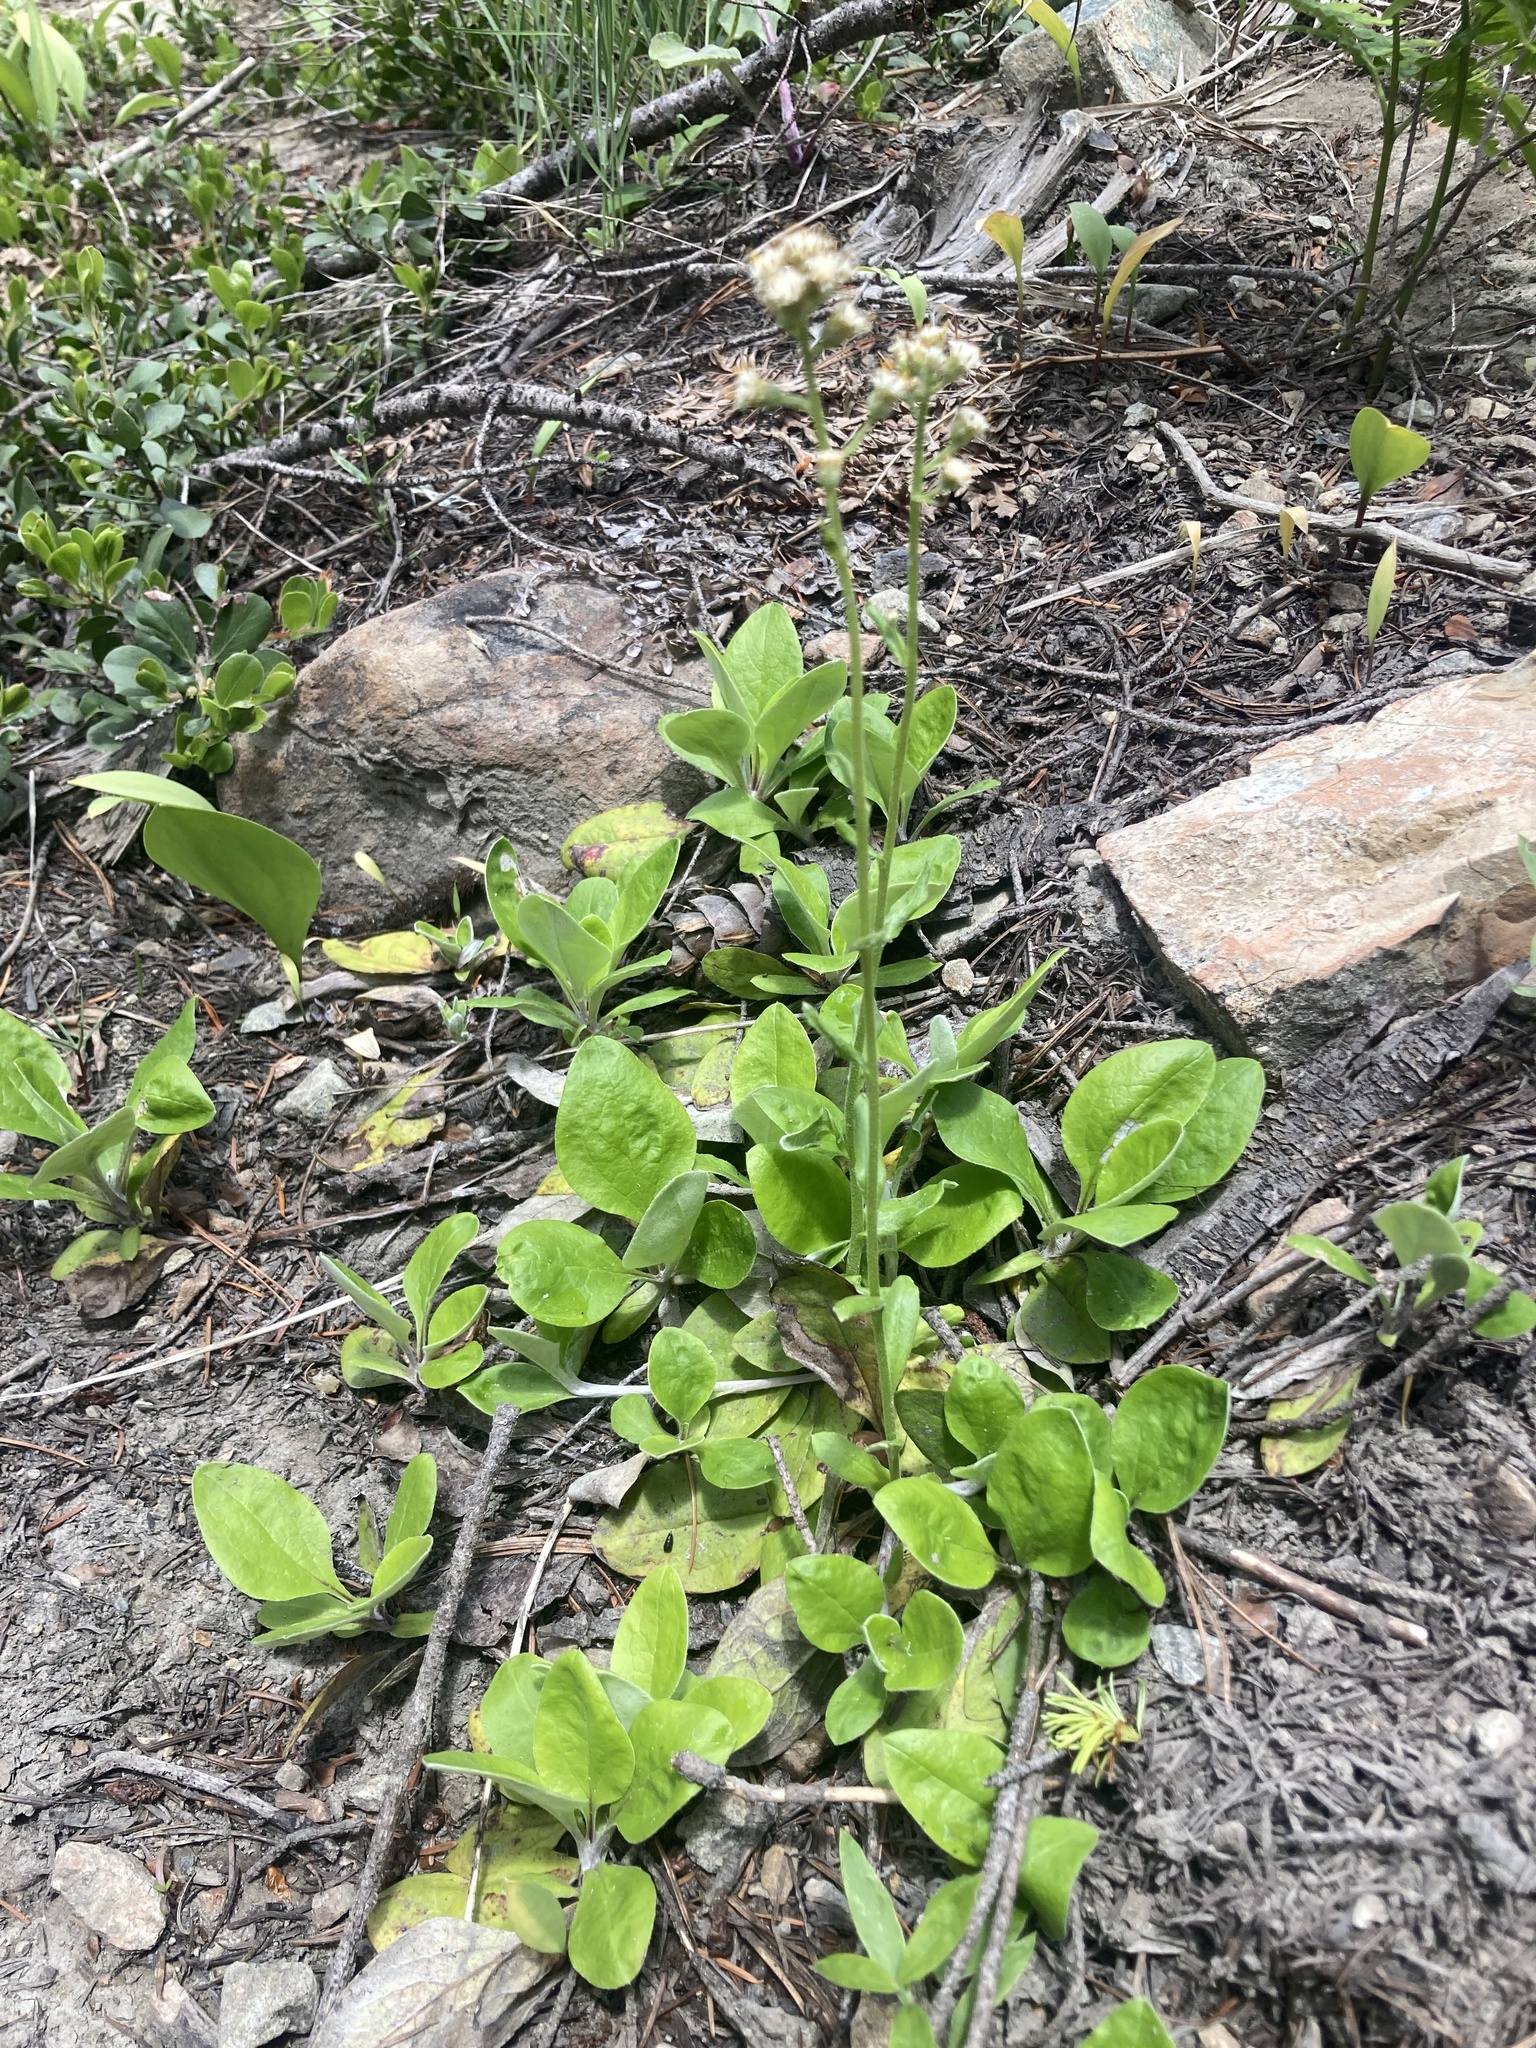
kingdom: Plantae
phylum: Tracheophyta
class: Magnoliopsida
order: Asterales
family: Asteraceae
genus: Antennaria
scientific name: Antennaria racemosa
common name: Racemose pussytoes
